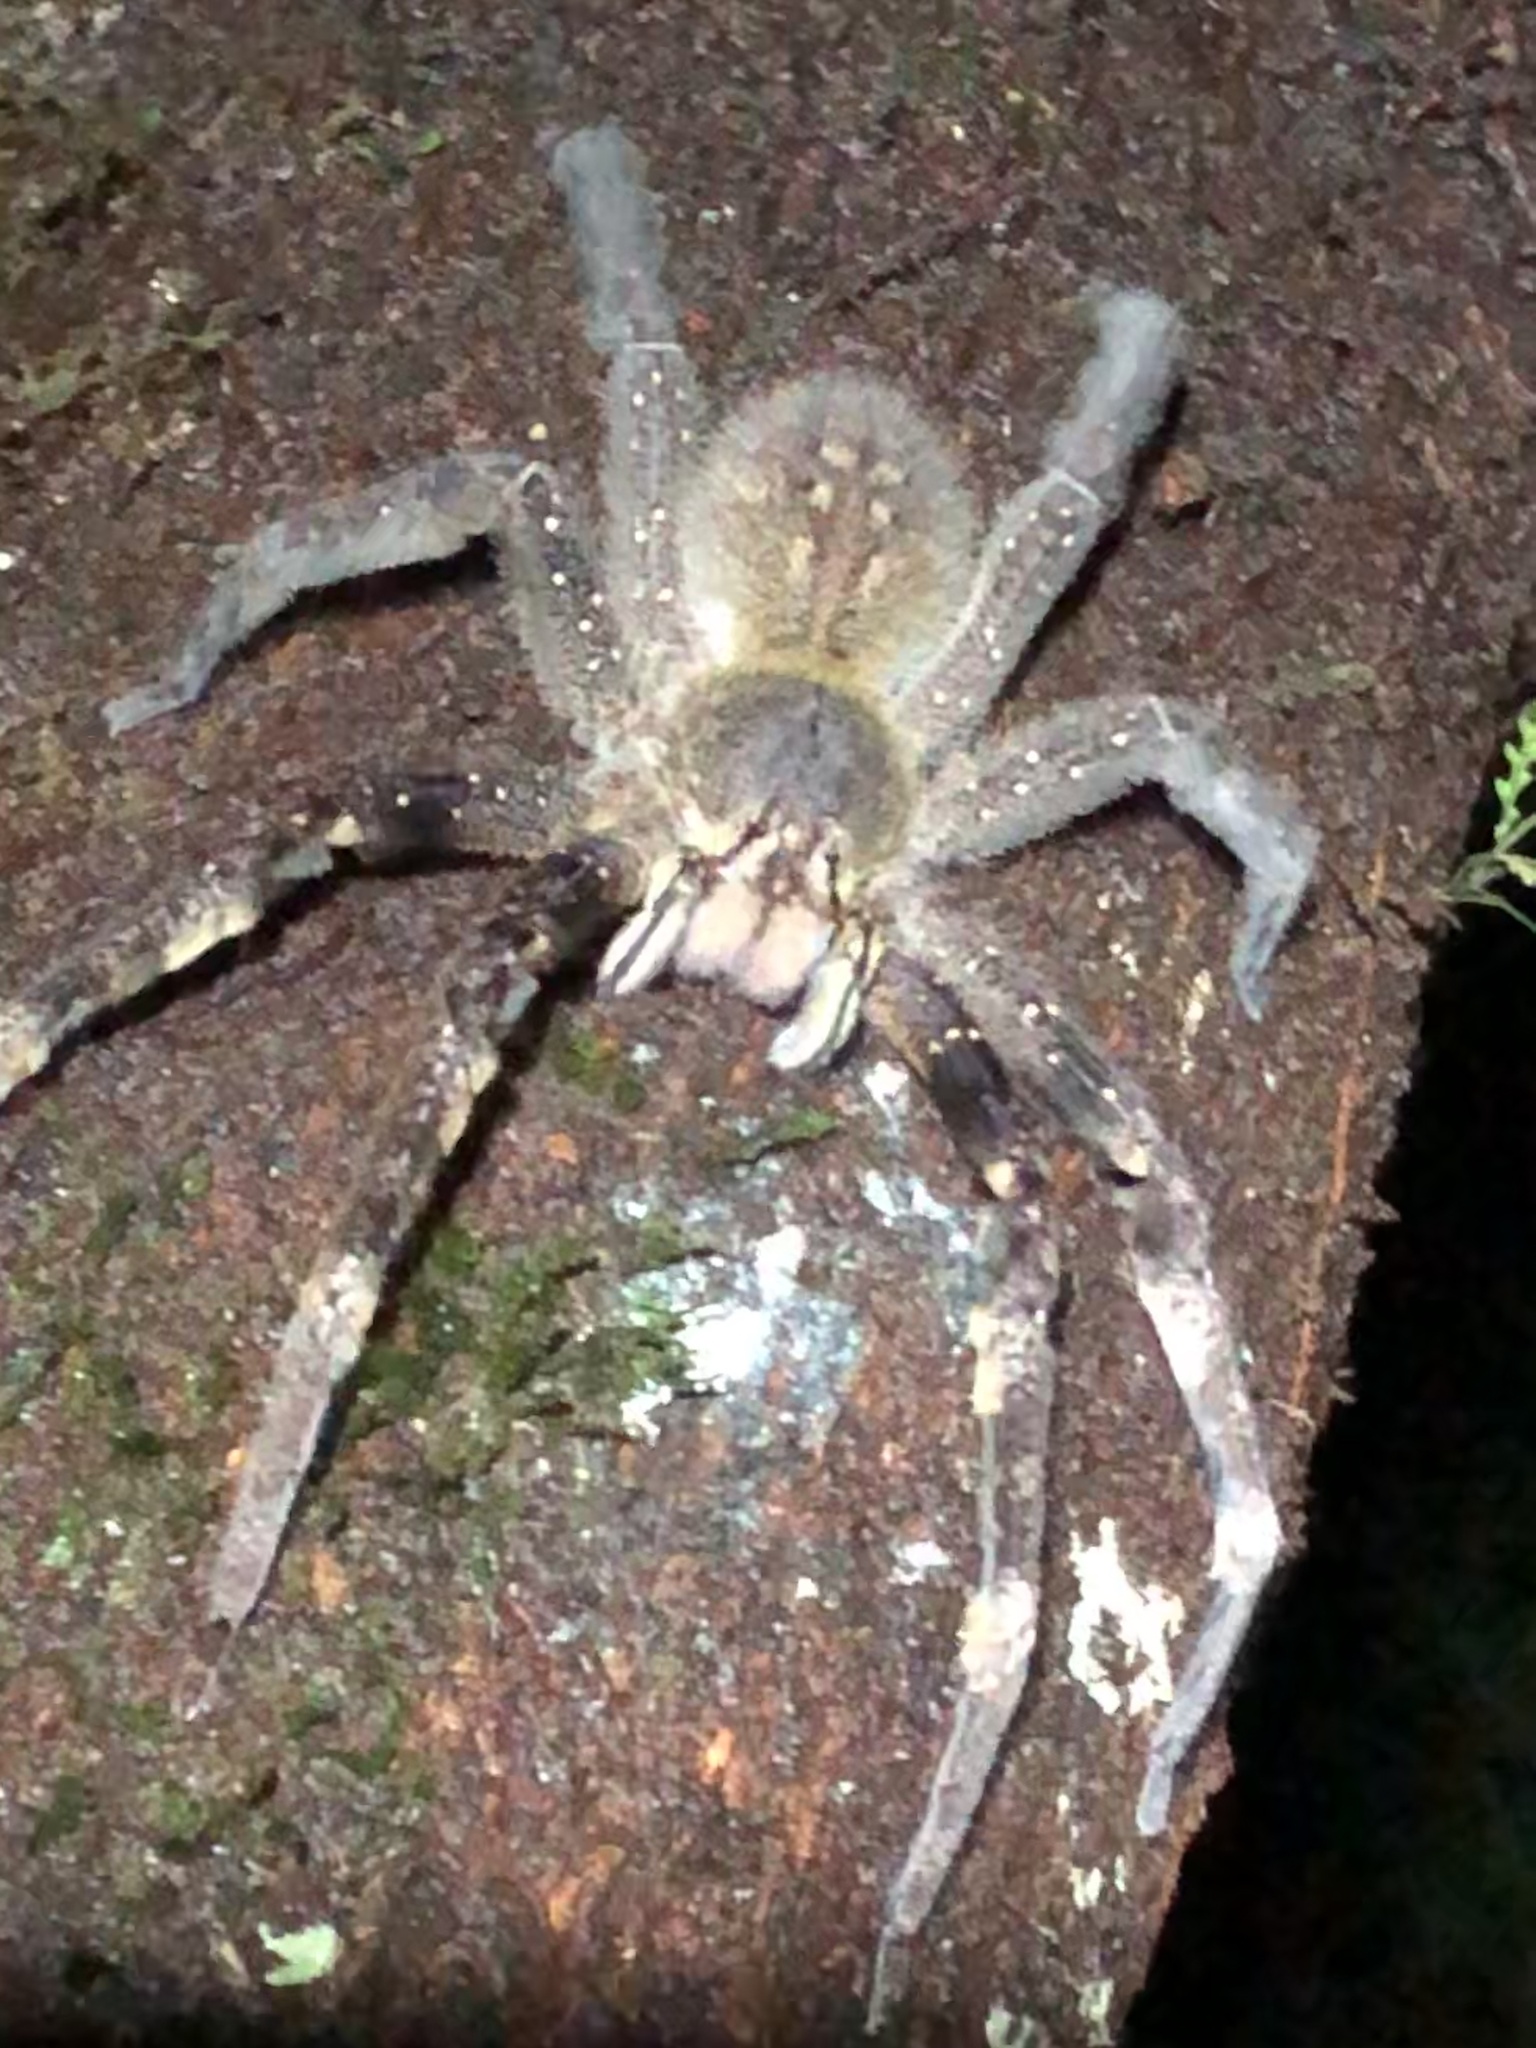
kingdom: Animalia
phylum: Arthropoda
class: Arachnida
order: Araneae
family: Ctenidae
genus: Phoneutria
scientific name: Phoneutria fera
